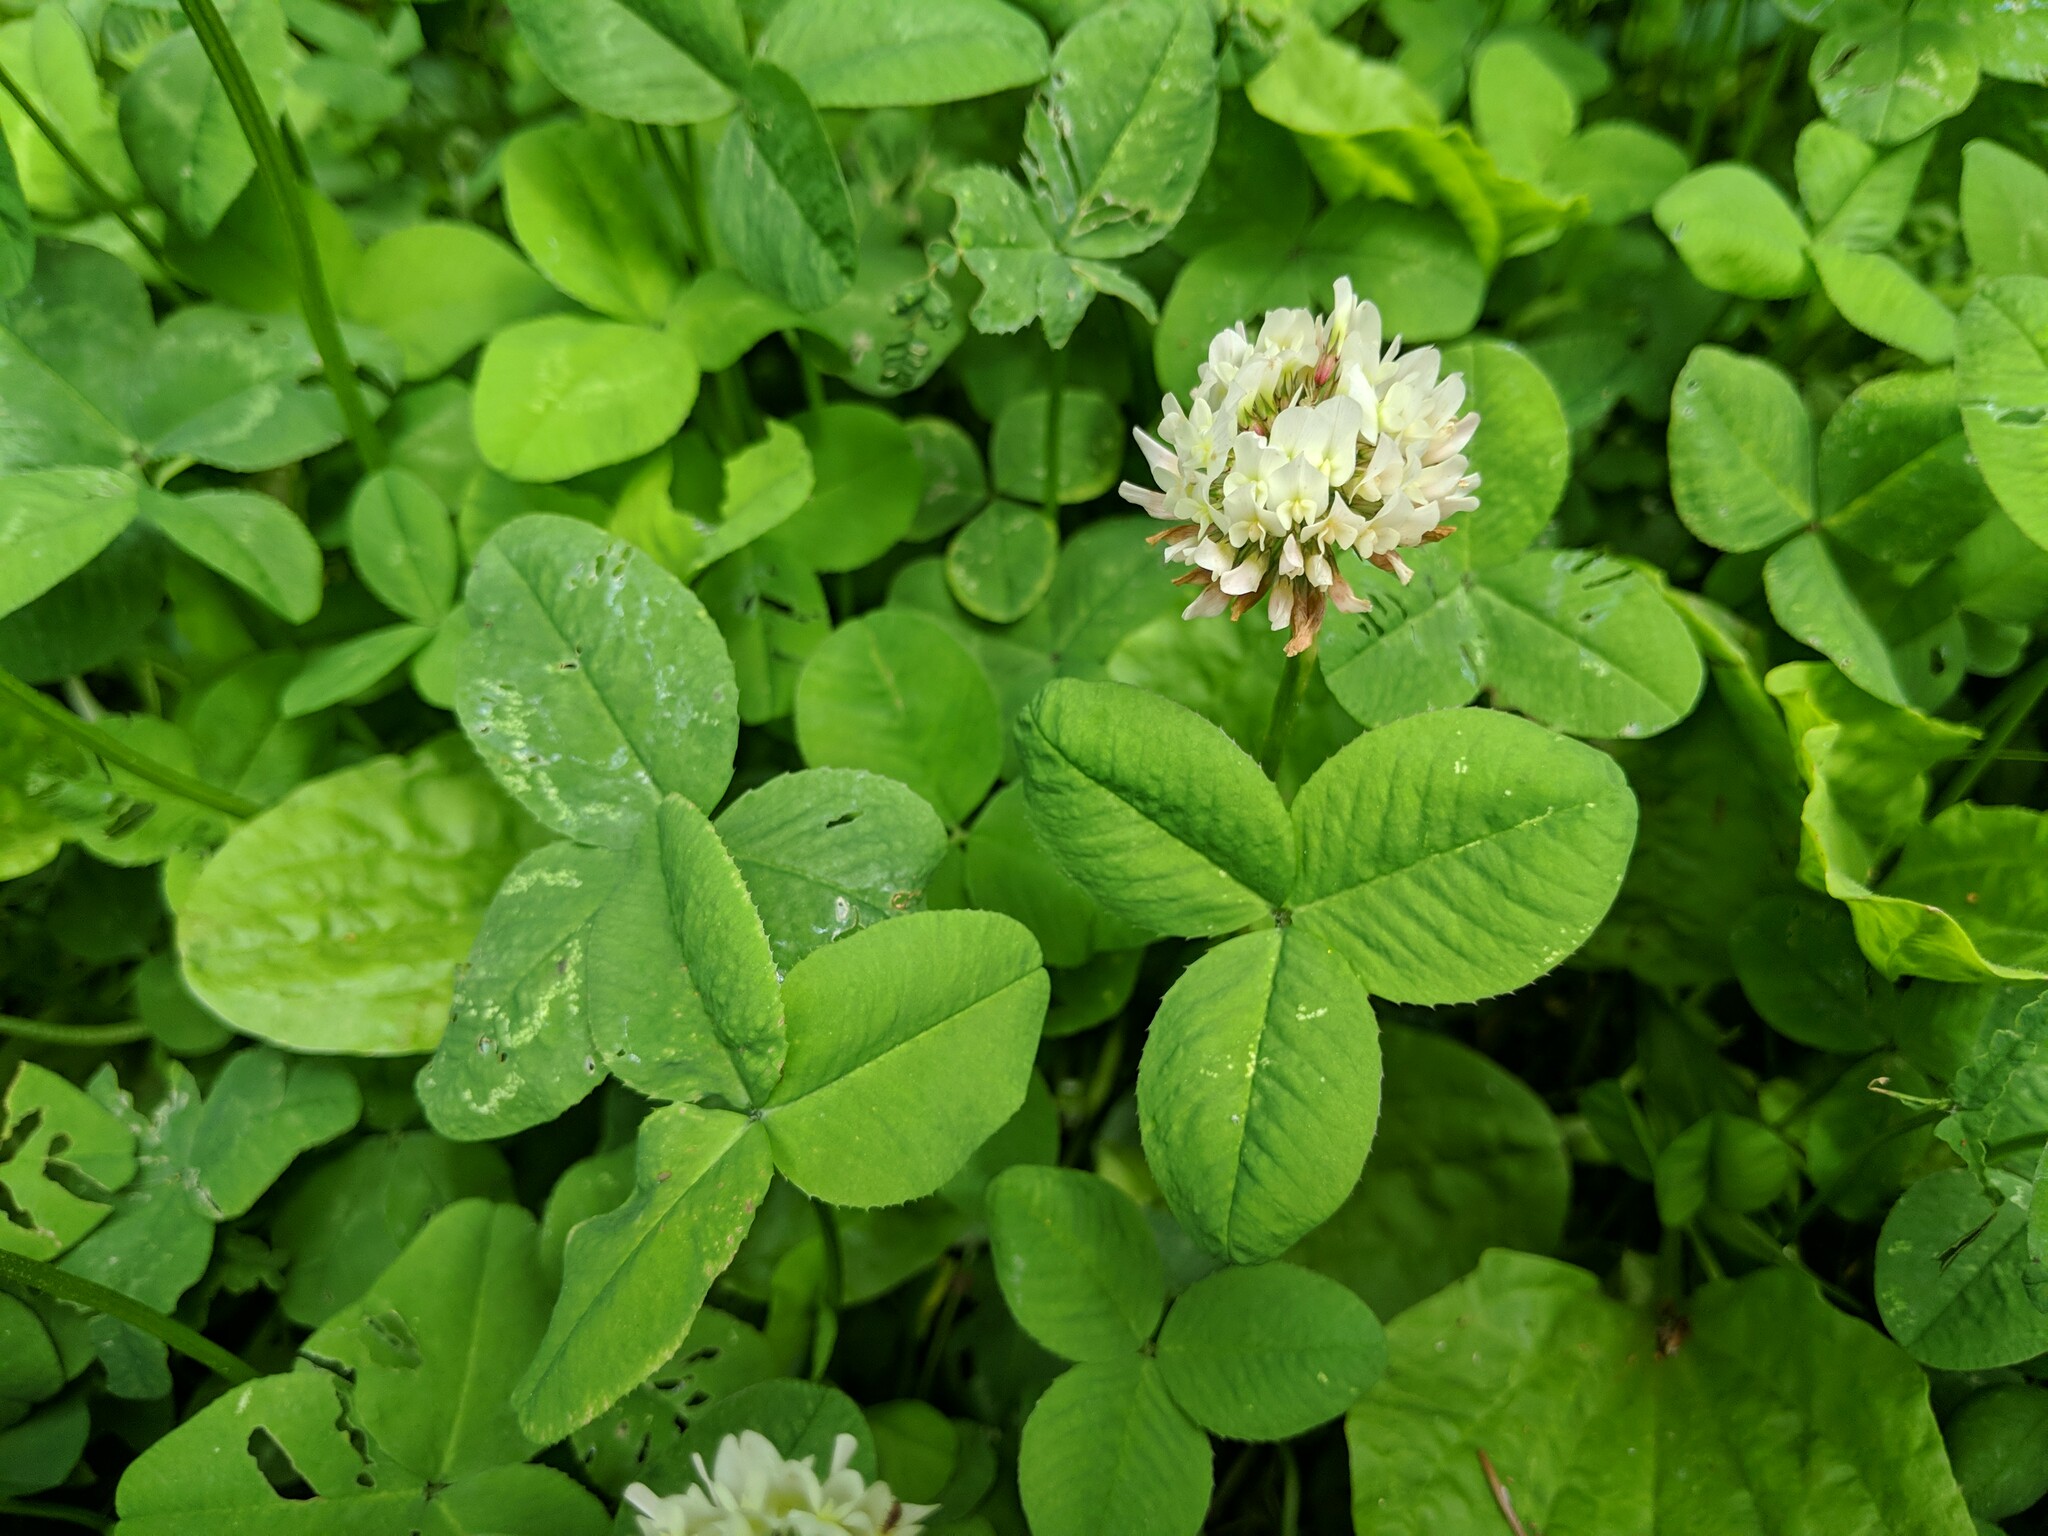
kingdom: Plantae
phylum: Tracheophyta
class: Magnoliopsida
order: Fabales
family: Fabaceae
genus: Trifolium
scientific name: Trifolium repens
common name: White clover
